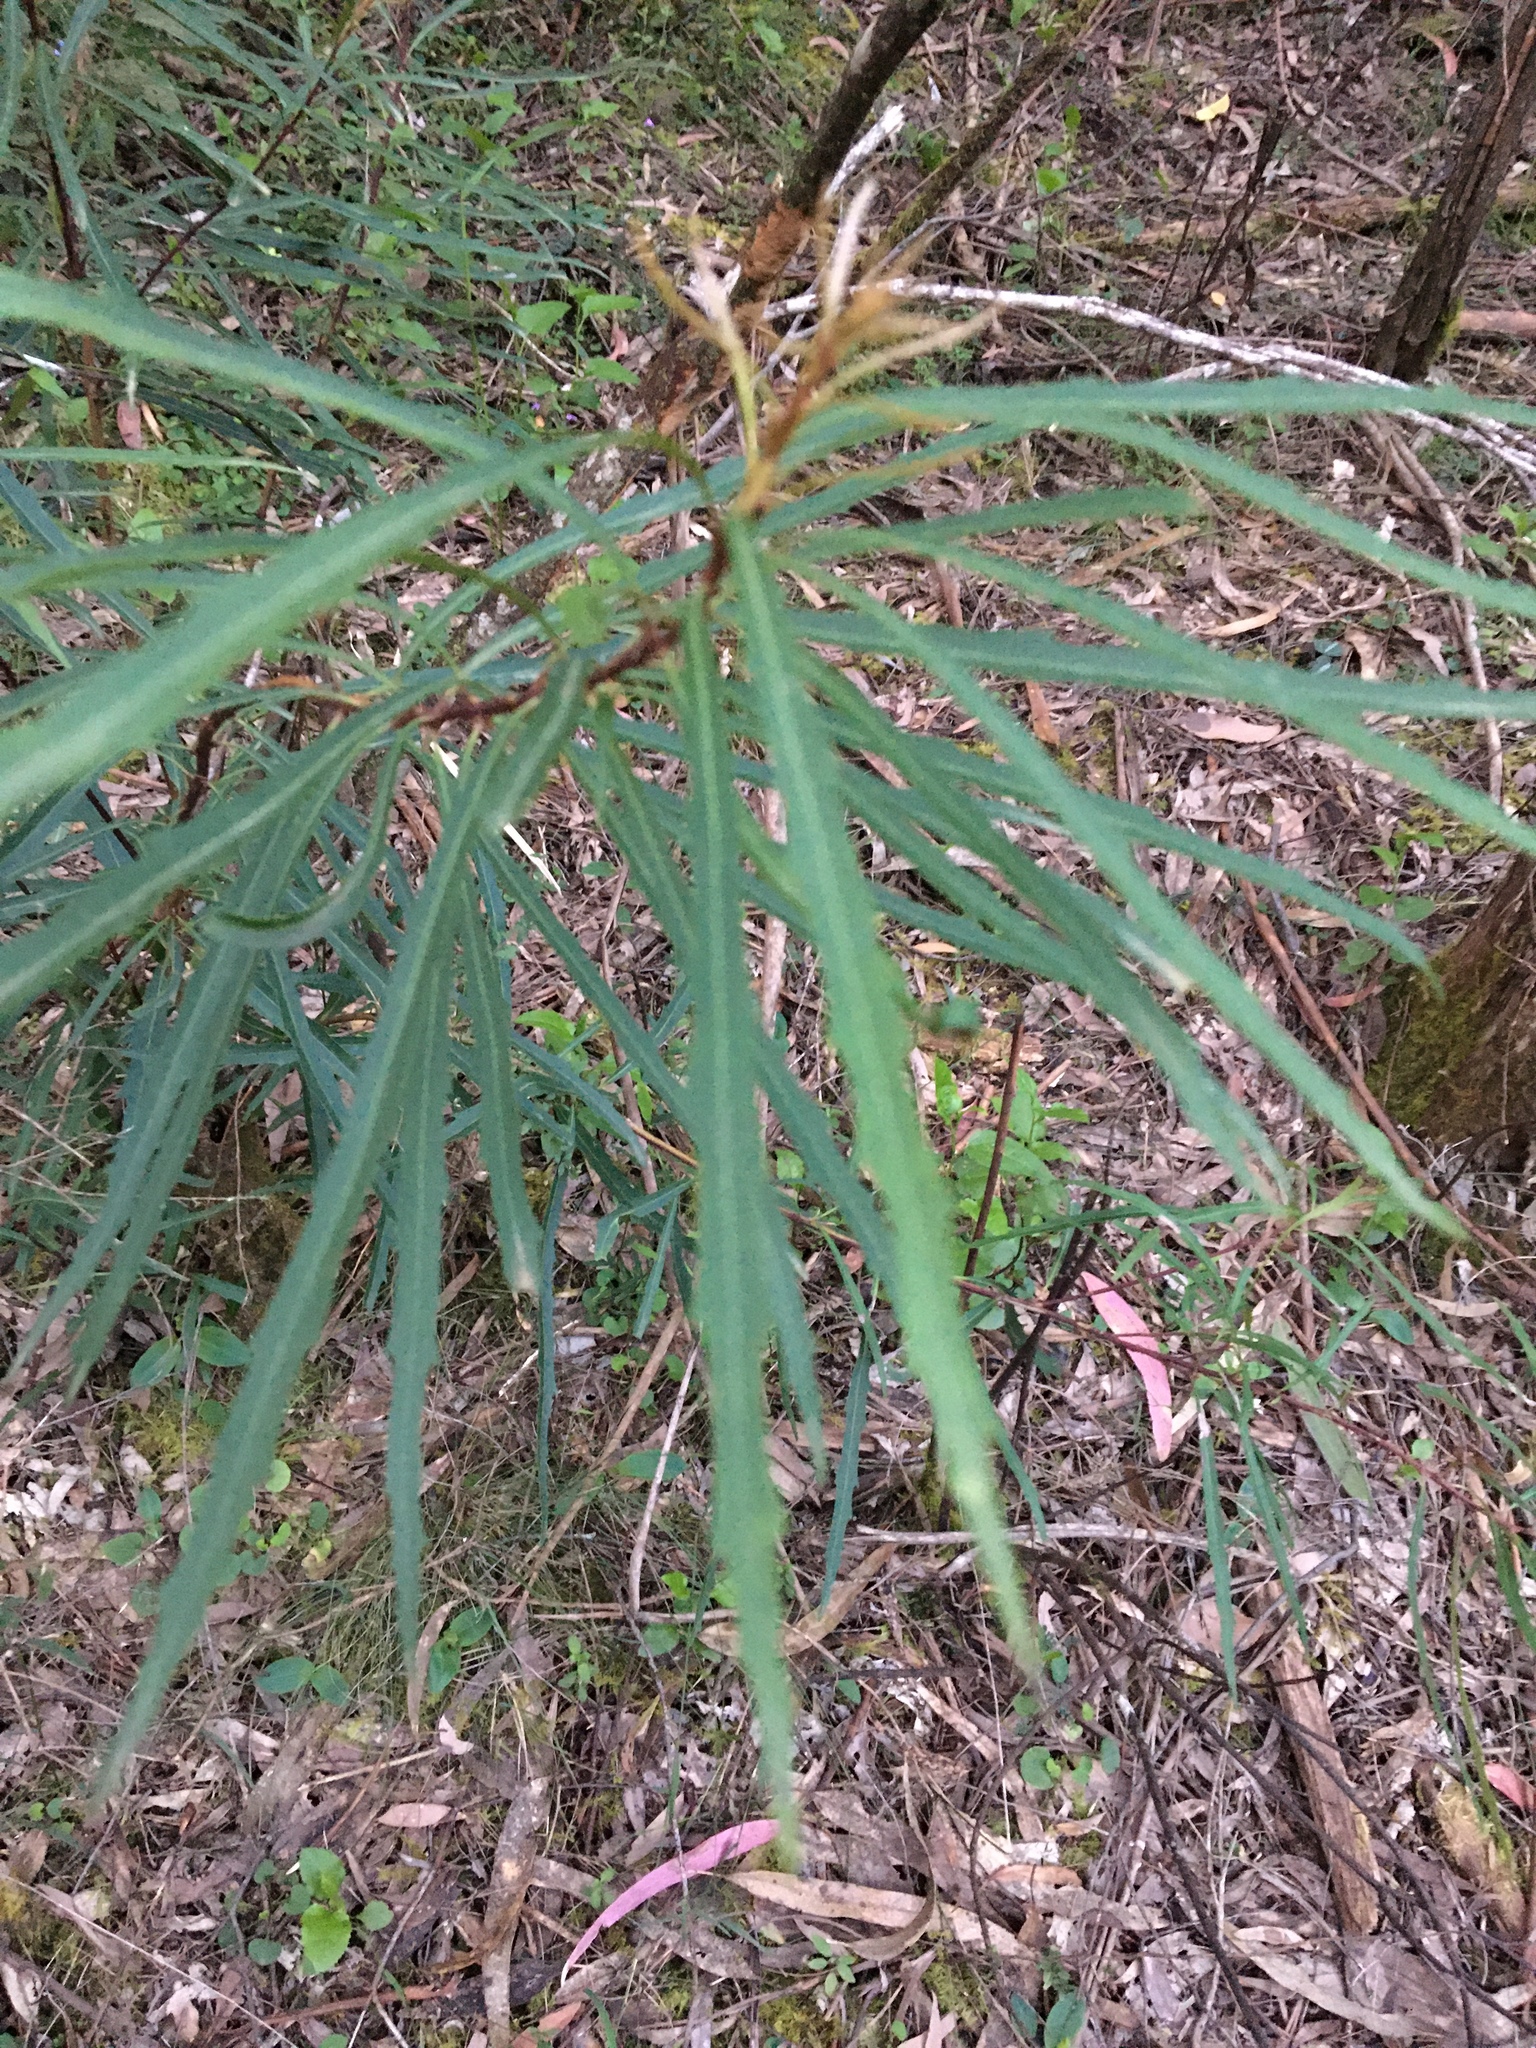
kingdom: Plantae
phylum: Tracheophyta
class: Magnoliopsida
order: Proteales
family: Proteaceae
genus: Lomatia
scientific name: Lomatia myricoides
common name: Longleaf lomatia
